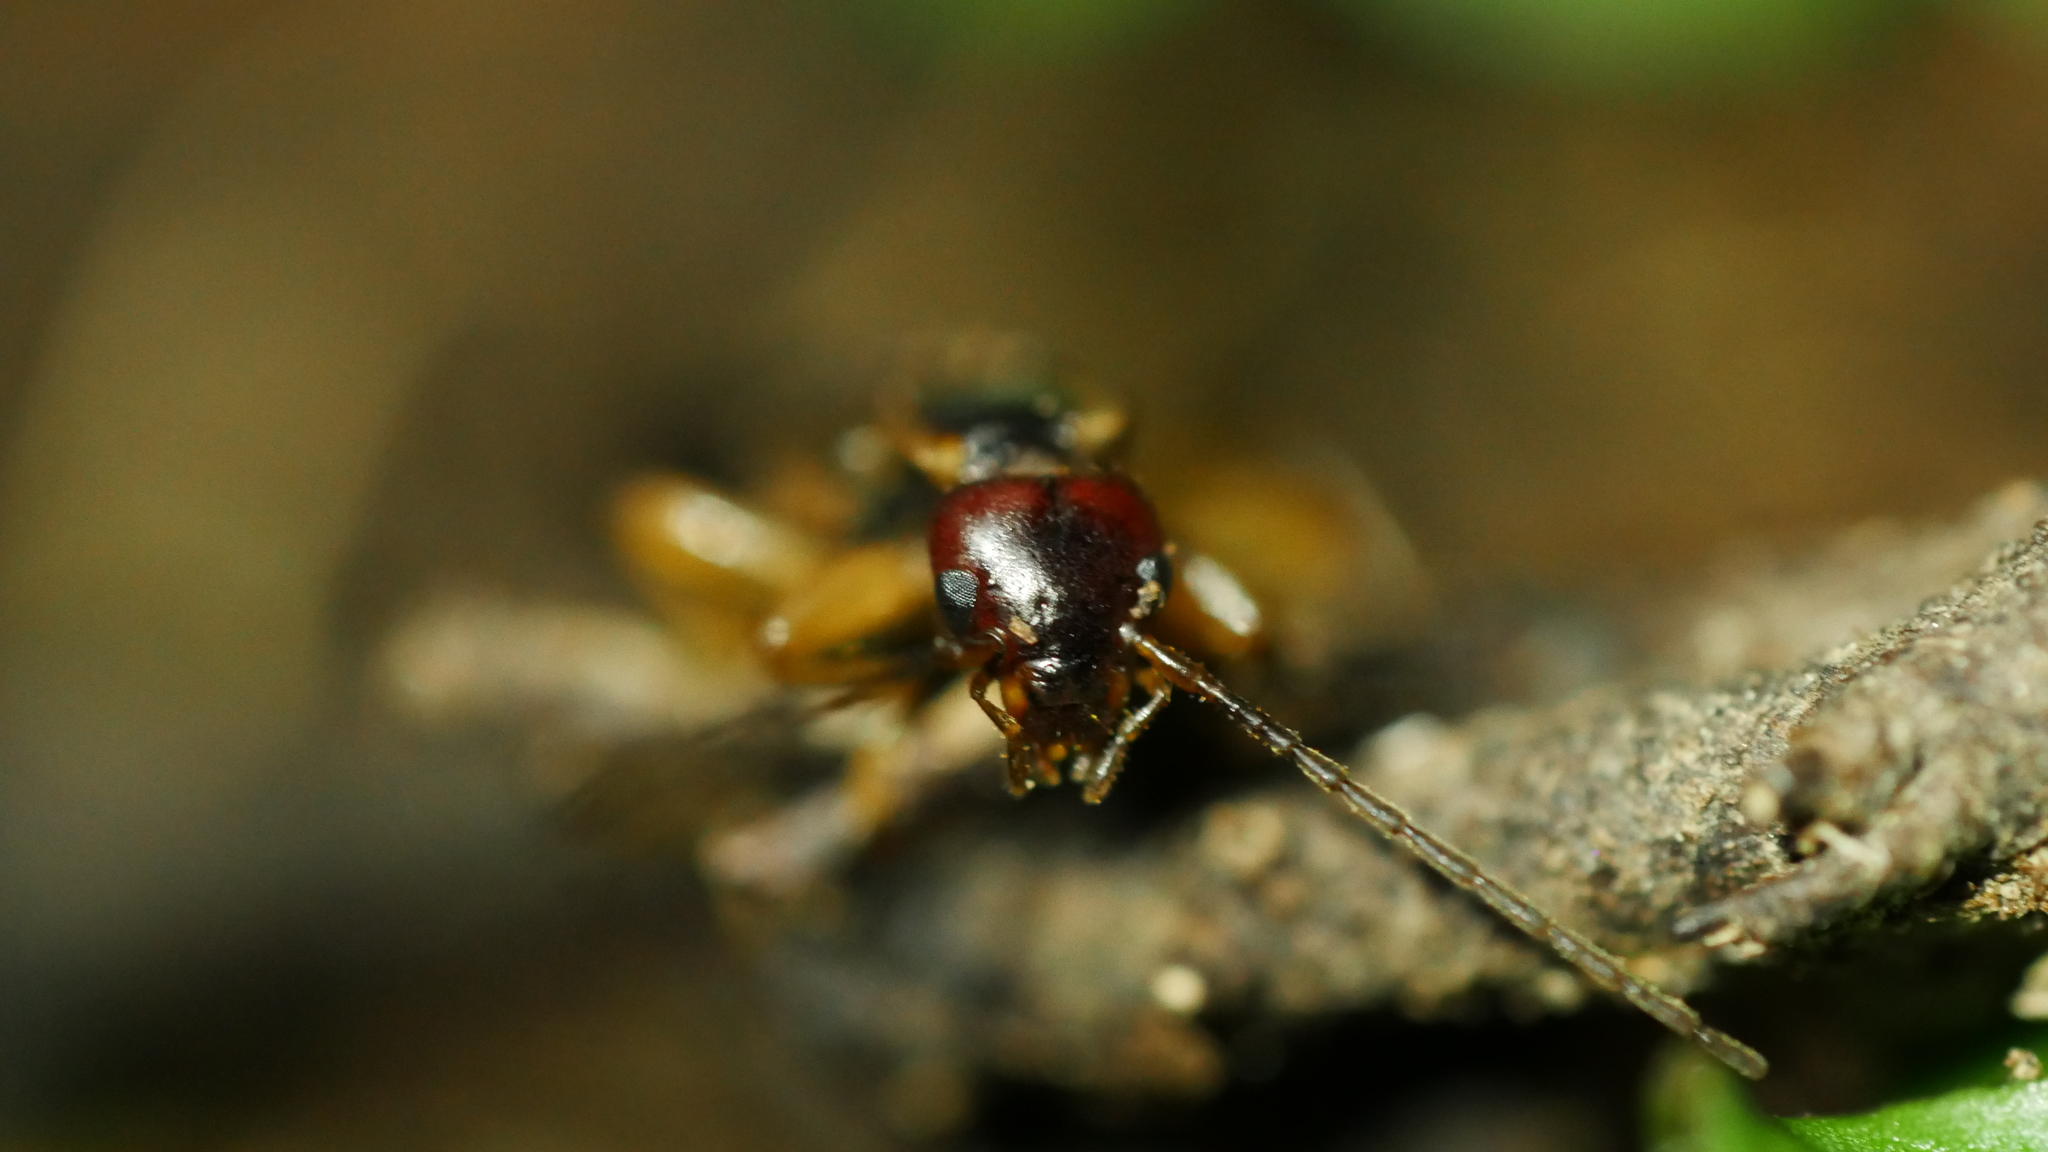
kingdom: Animalia
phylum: Arthropoda
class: Insecta
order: Dermaptera
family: Forficulidae
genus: Forficula
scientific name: Forficula
